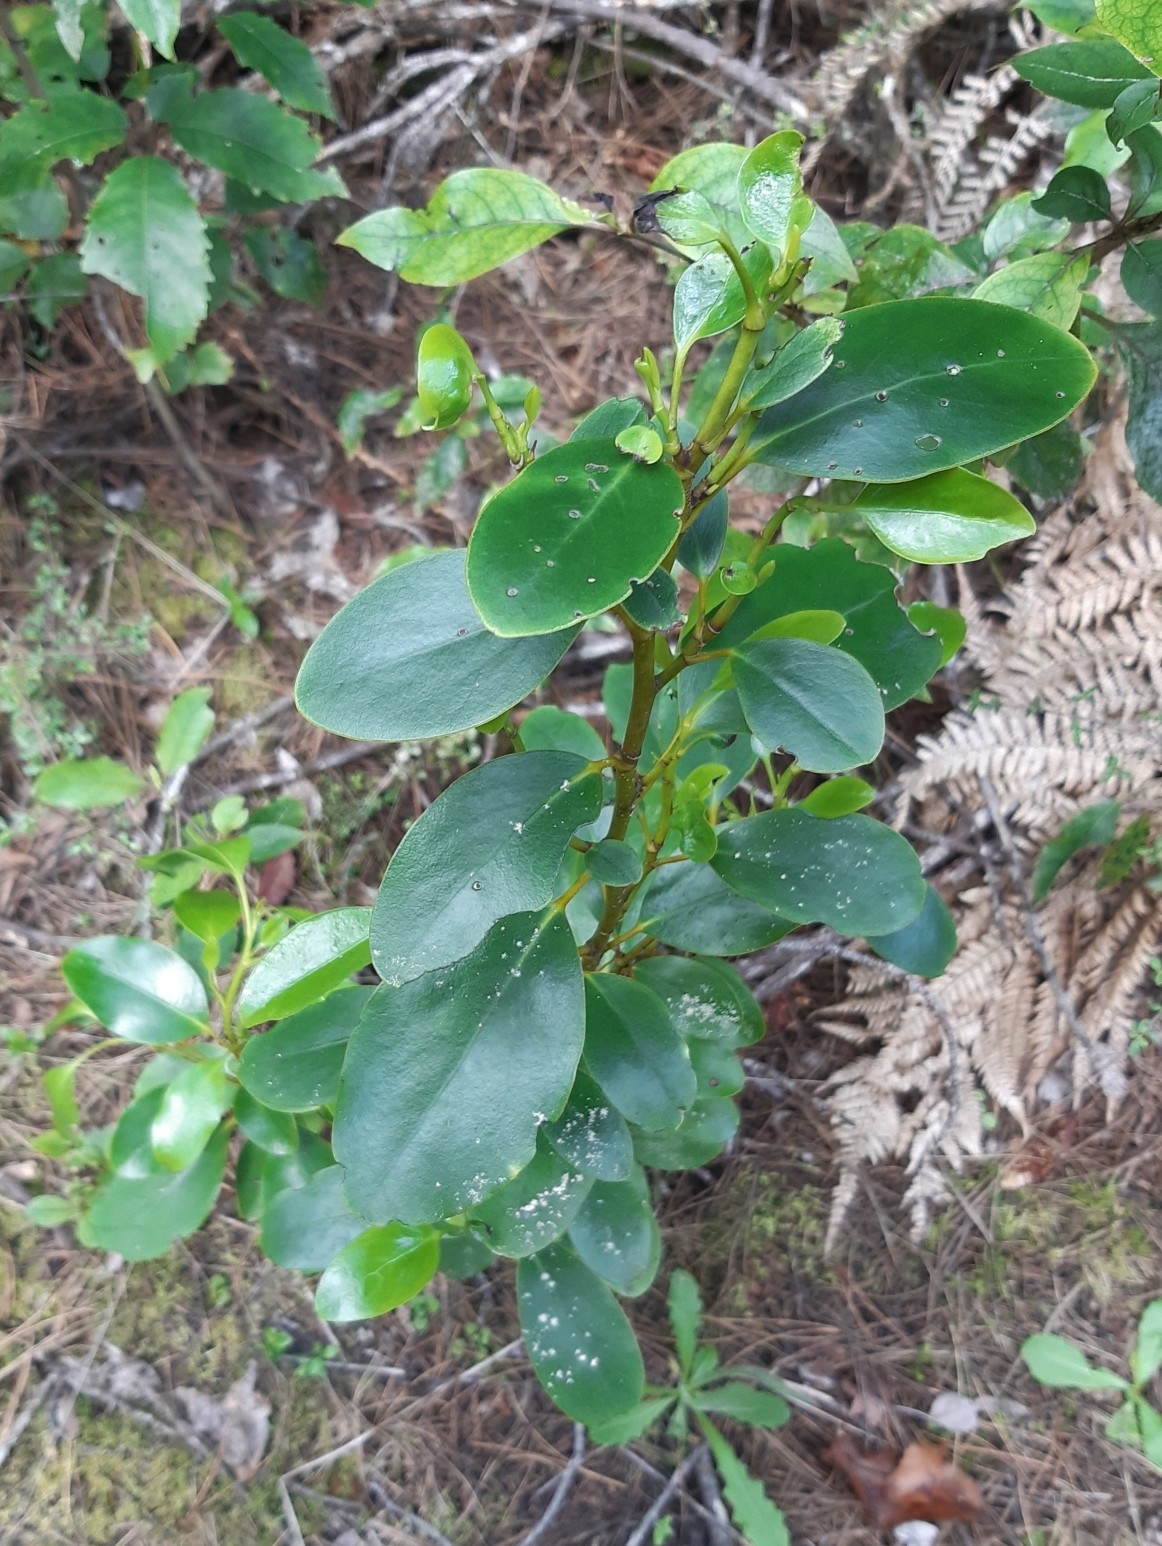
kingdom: Plantae
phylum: Tracheophyta
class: Magnoliopsida
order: Apiales
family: Griseliniaceae
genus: Griselinia
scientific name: Griselinia littoralis
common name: New zealand broadleaf
